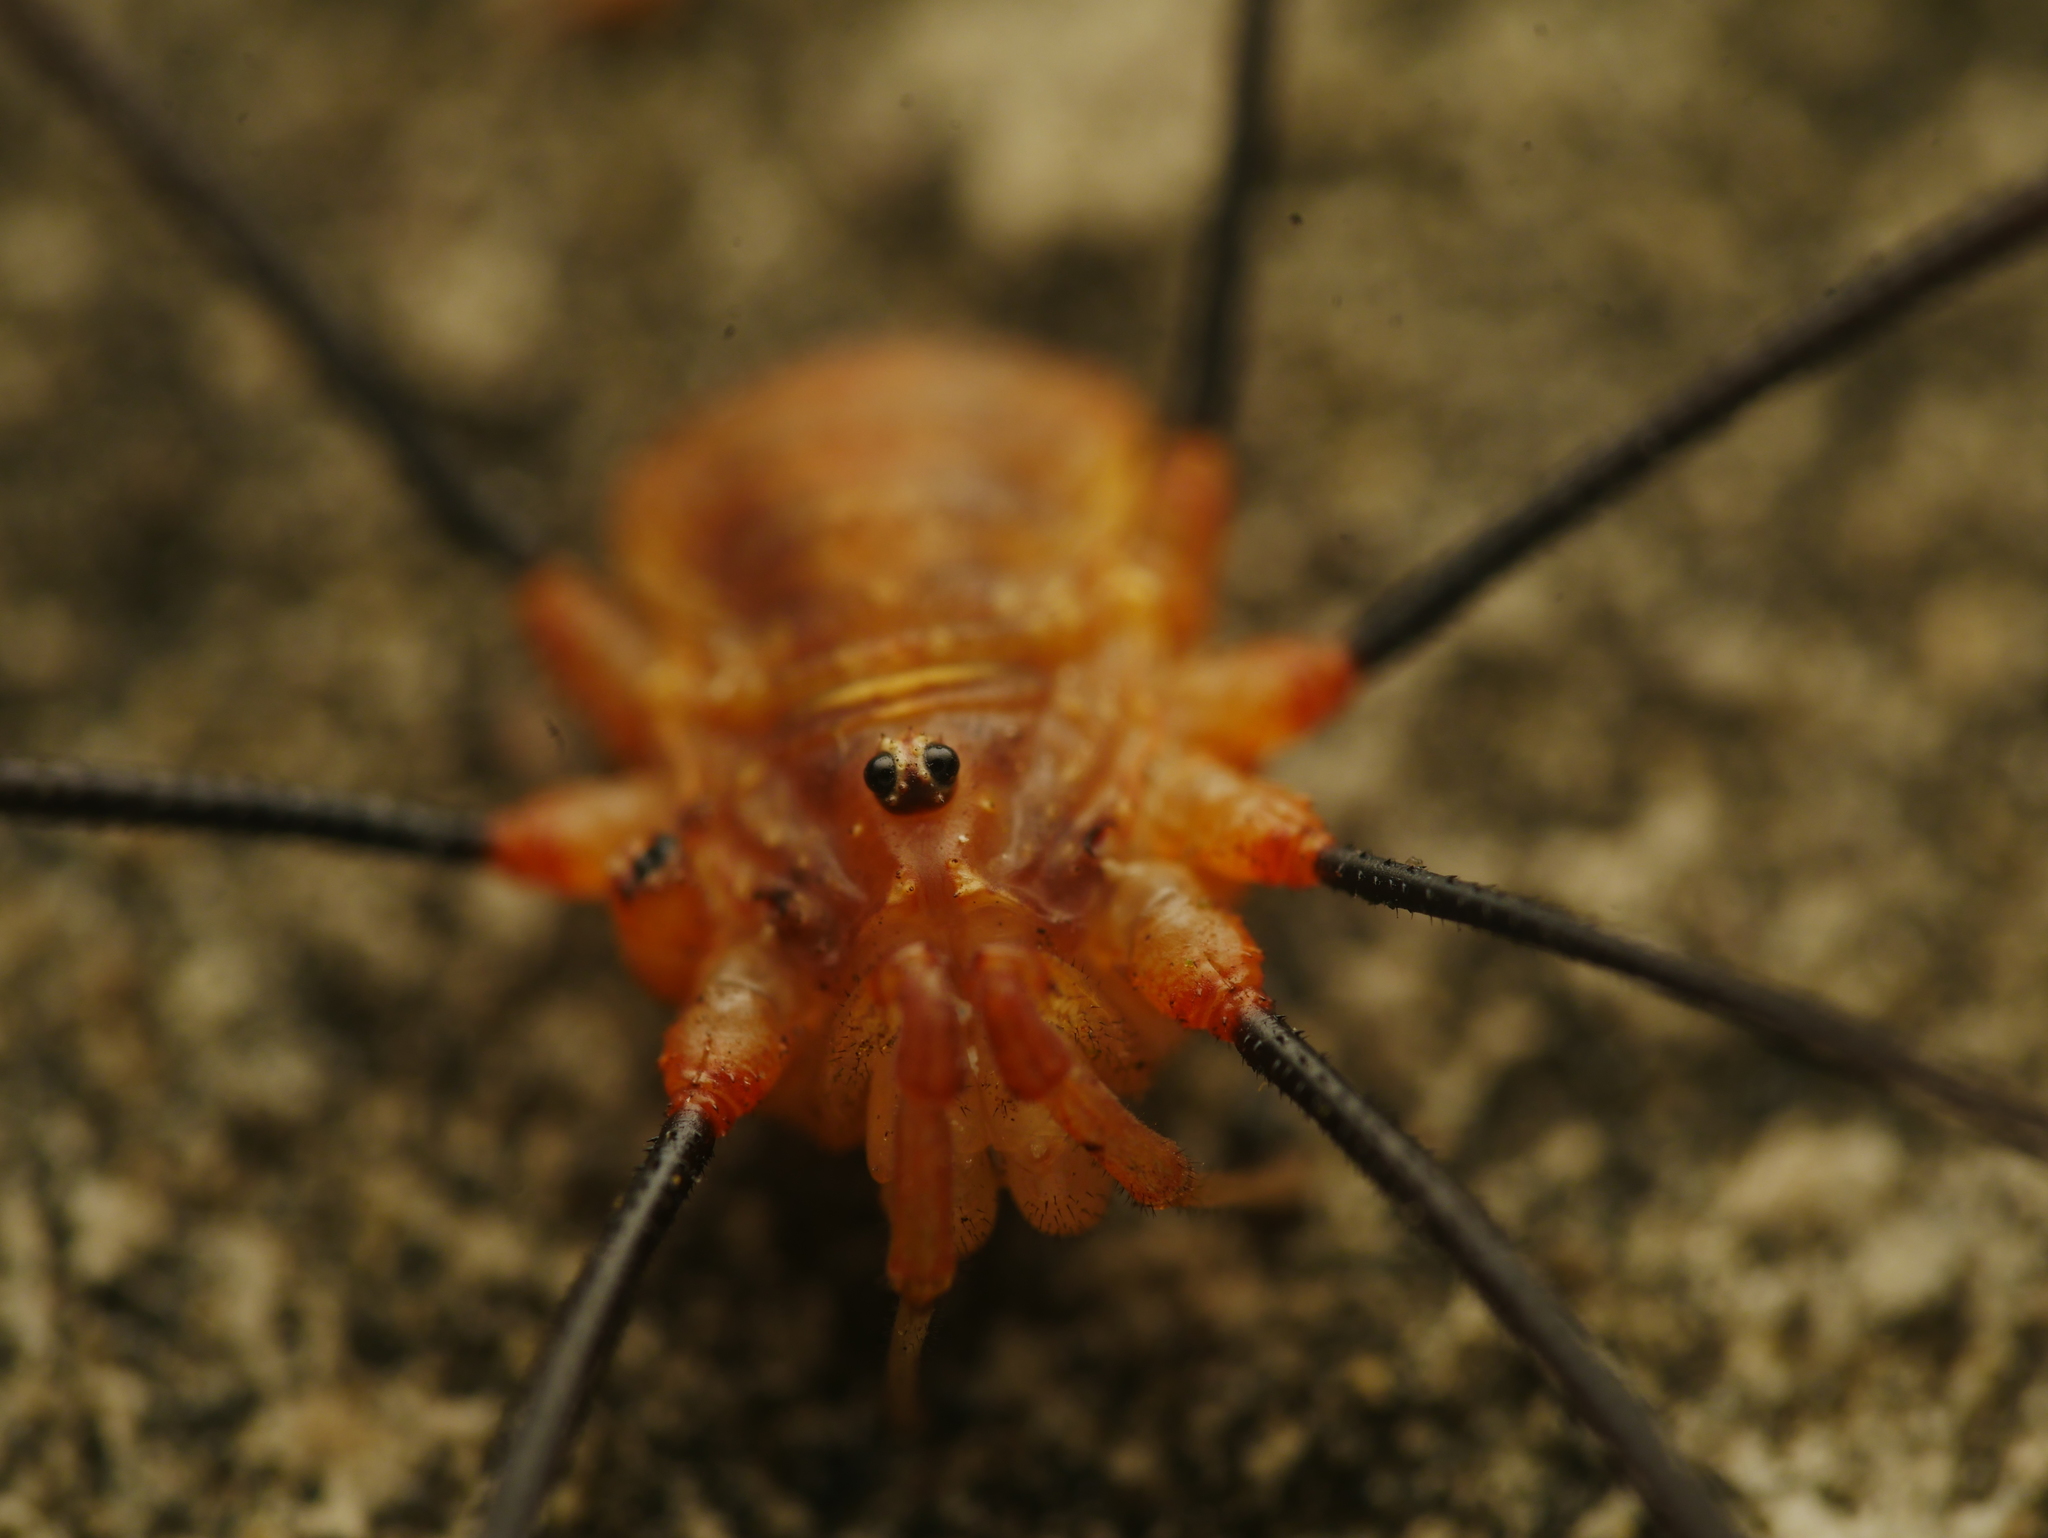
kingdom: Animalia
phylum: Arthropoda
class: Arachnida
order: Opiliones
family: Phalangiidae
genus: Opilio
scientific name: Opilio canestrinii
